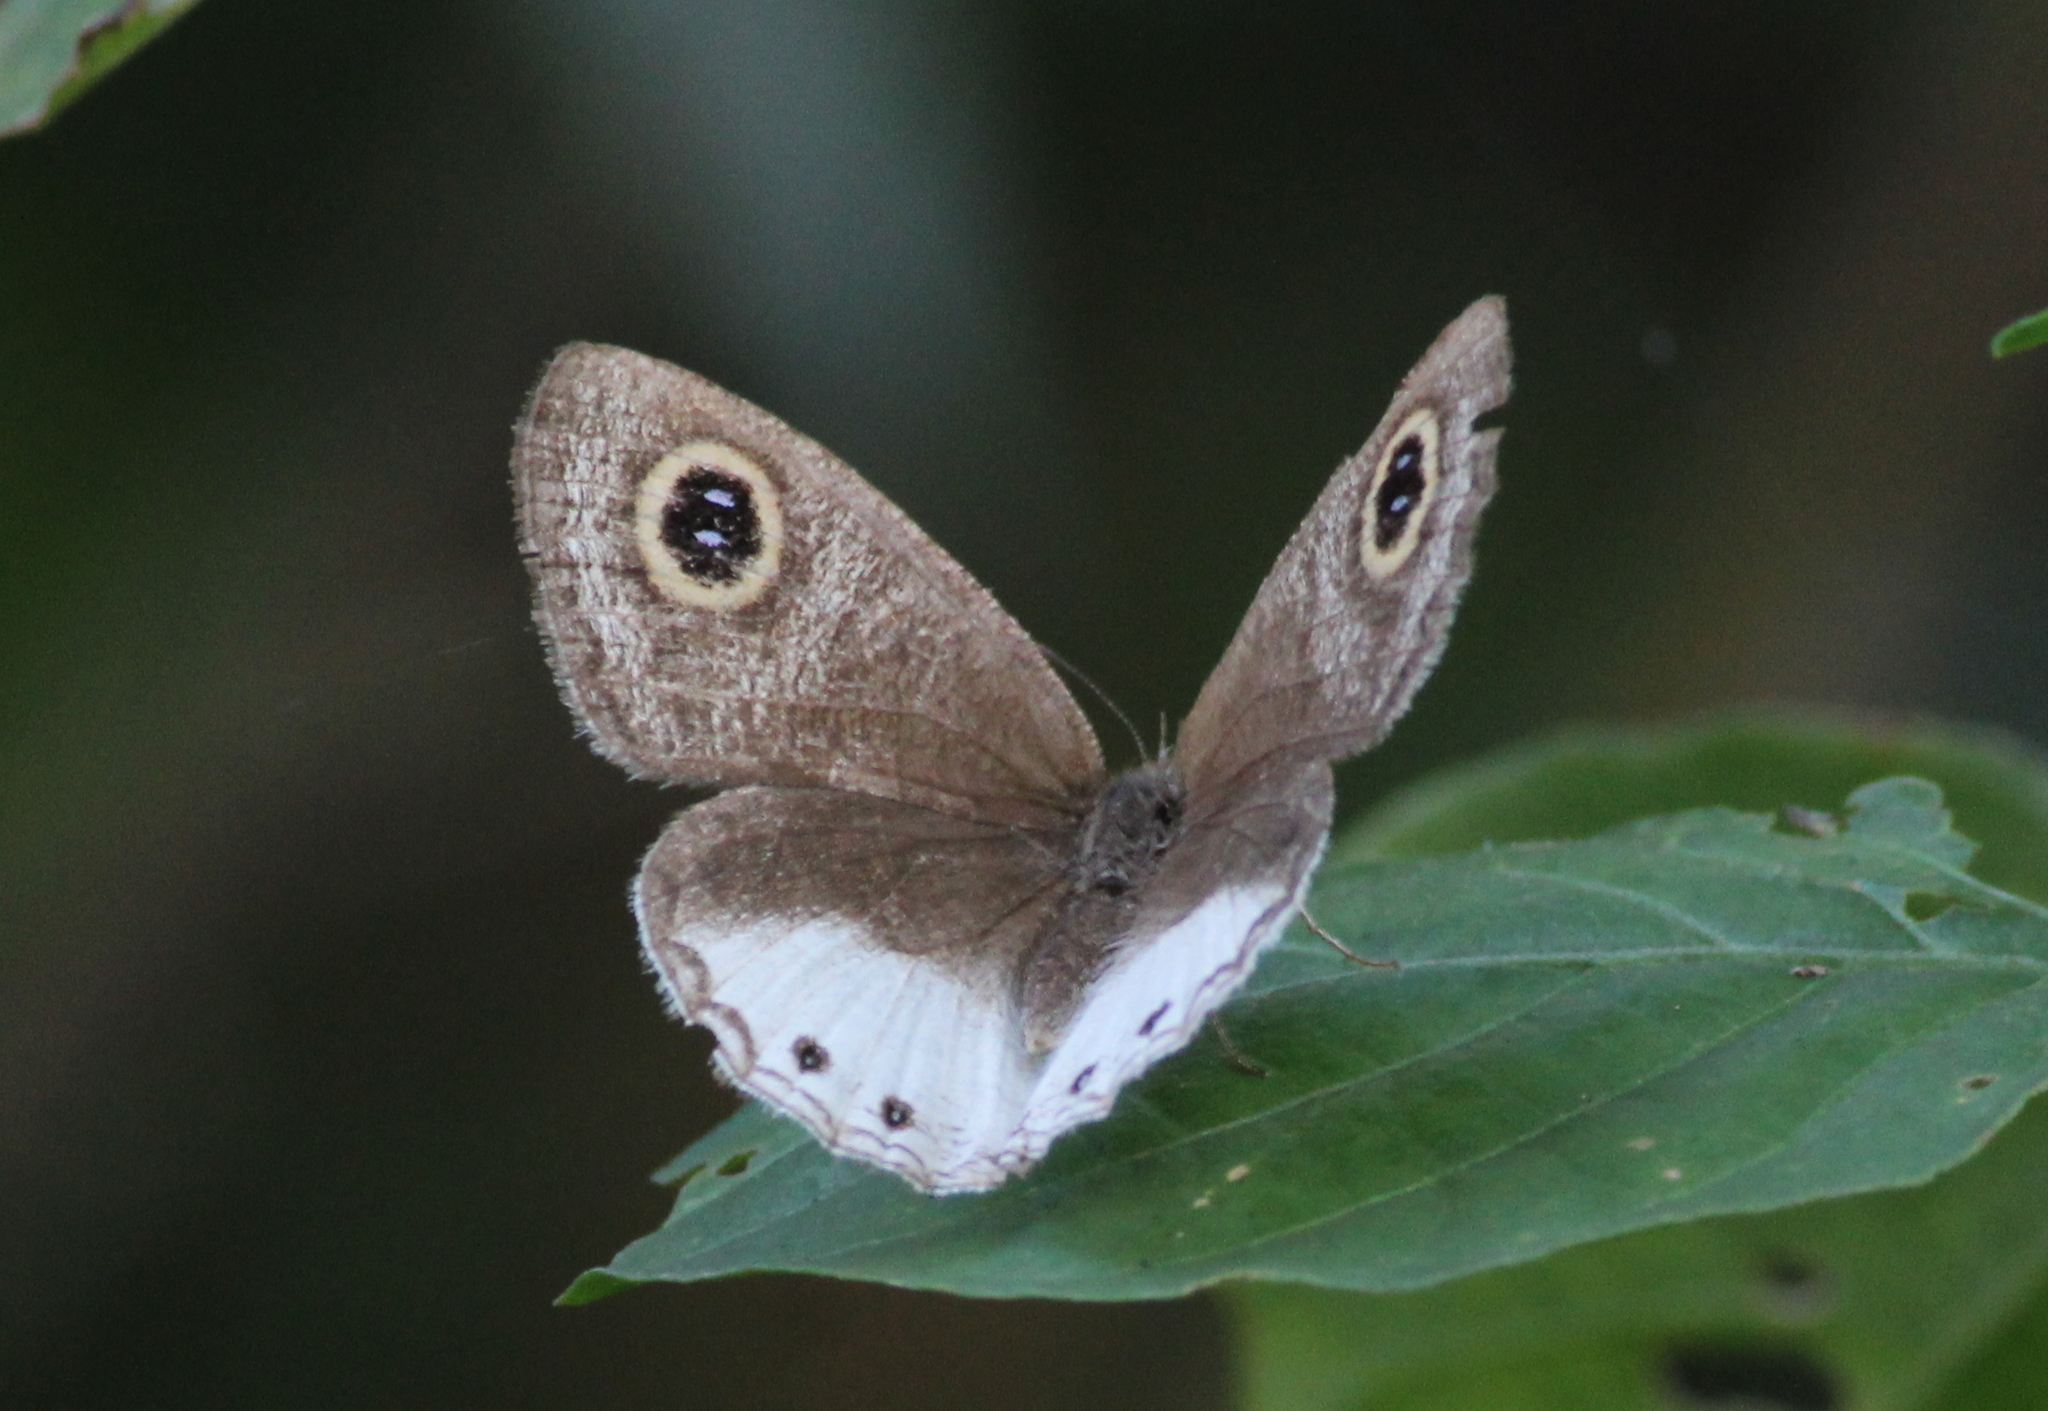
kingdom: Animalia
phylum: Arthropoda
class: Insecta
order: Lepidoptera
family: Nymphalidae
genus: Ypthima
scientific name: Ypthima huebneri
